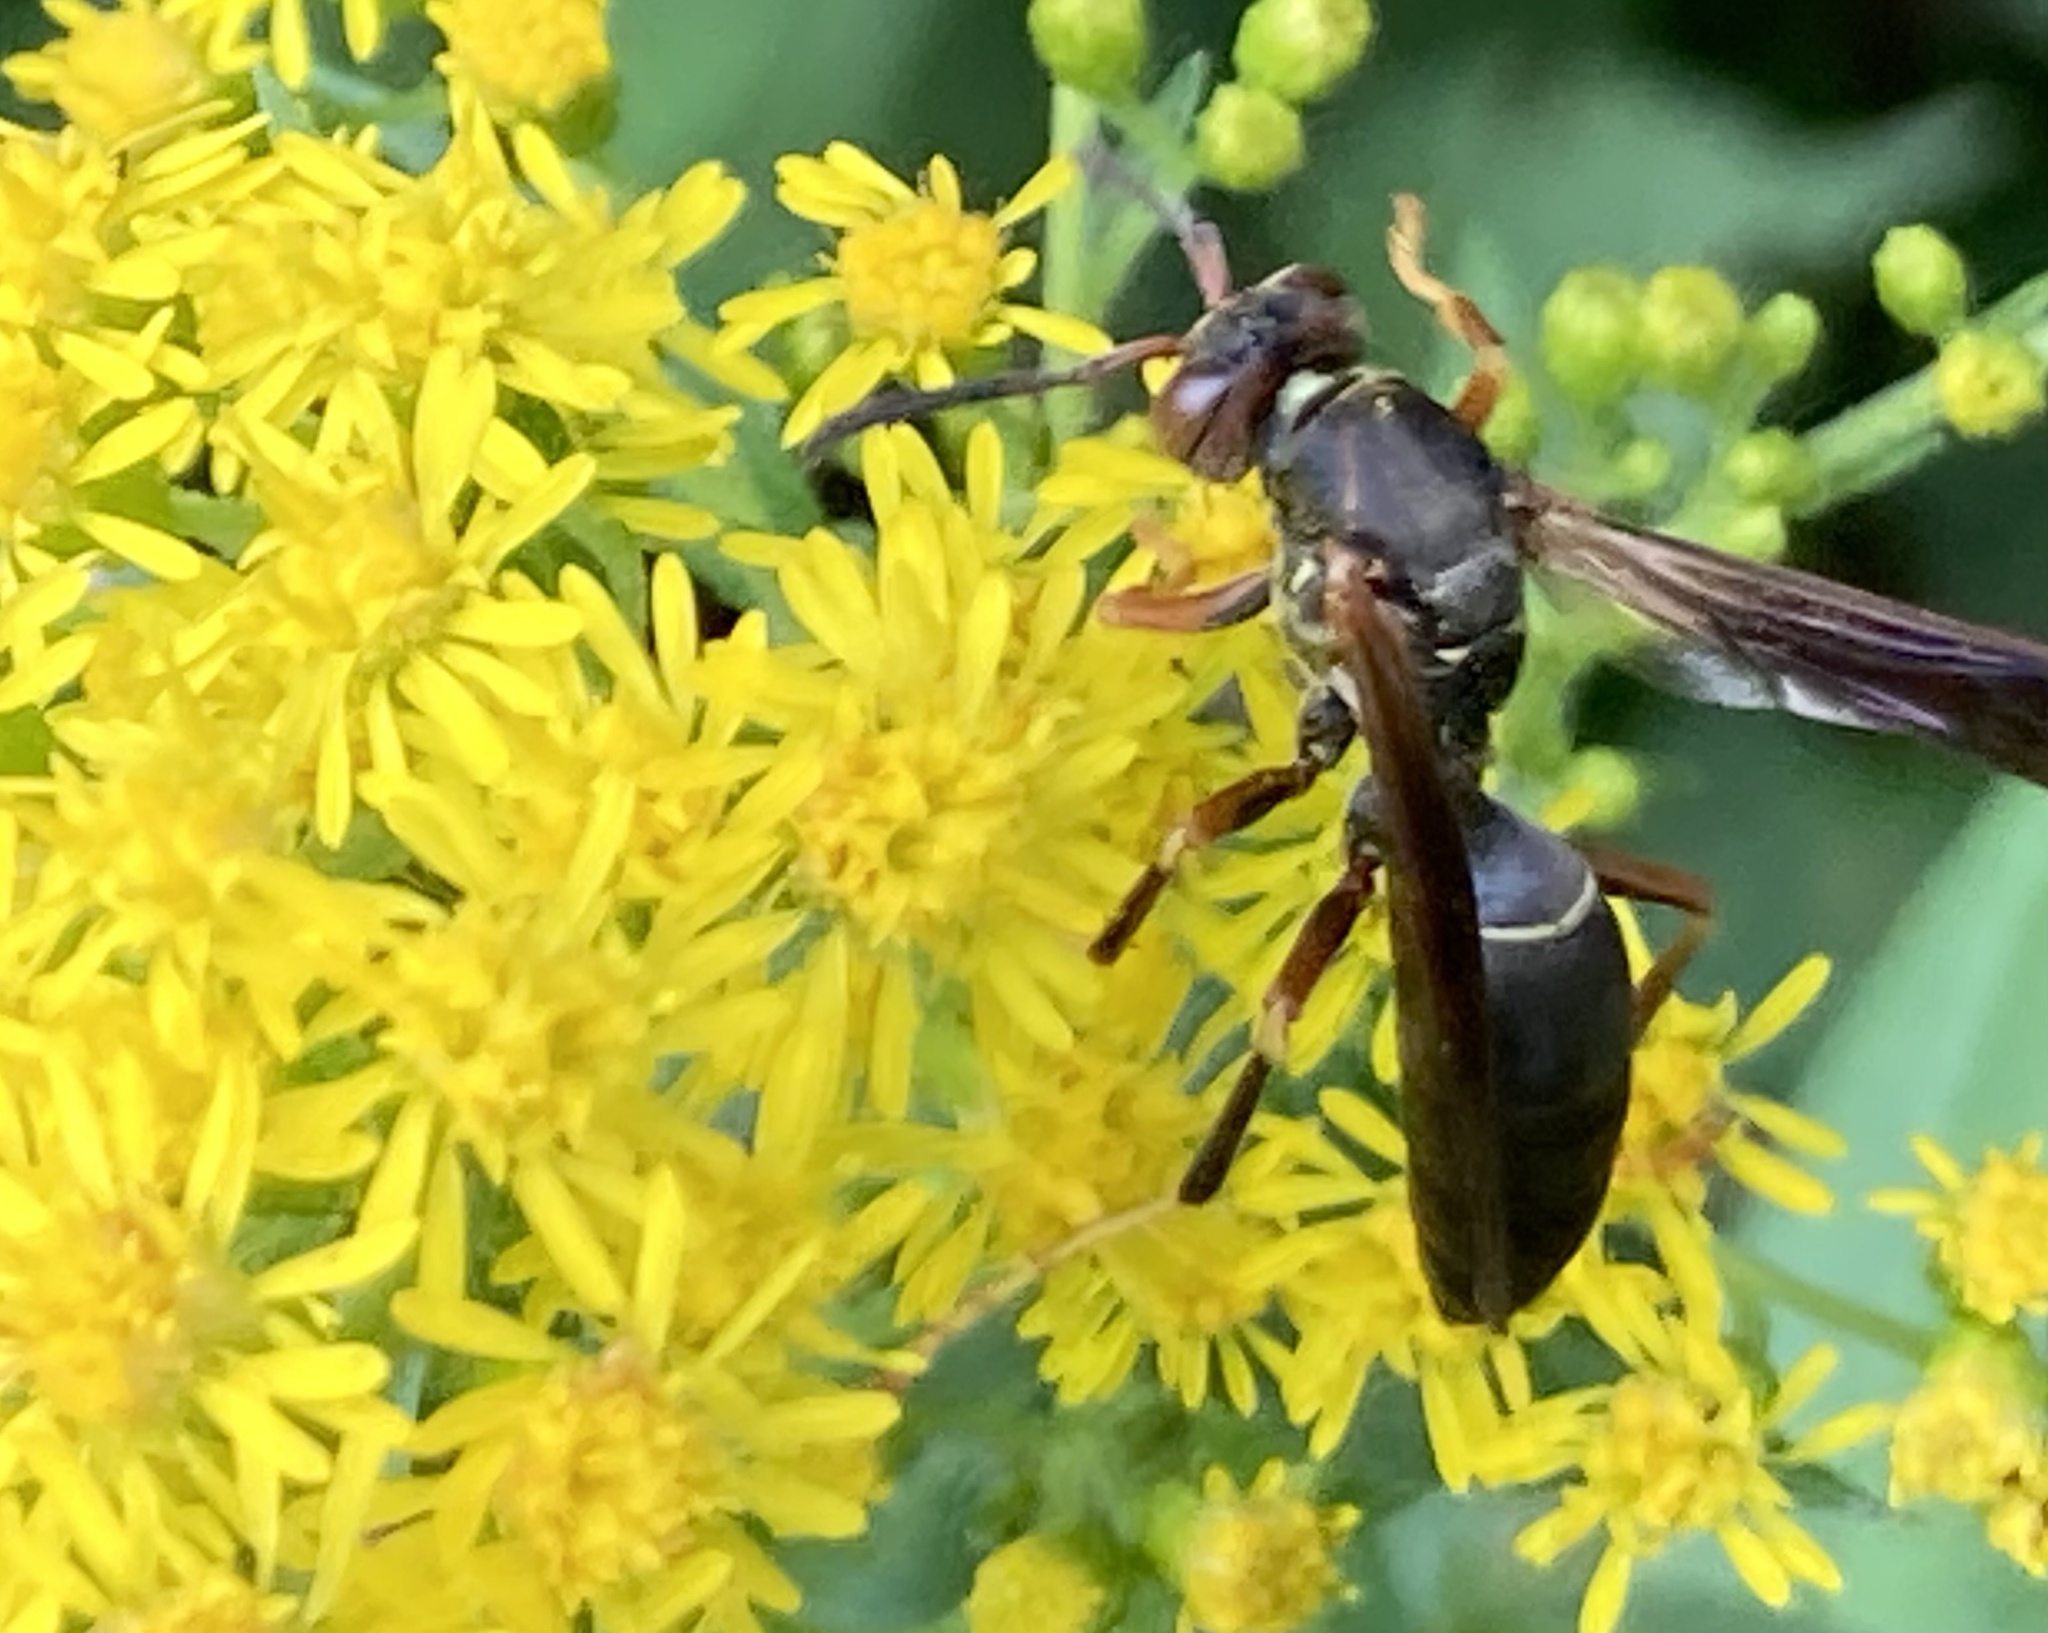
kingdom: Animalia
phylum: Arthropoda
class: Insecta
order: Hymenoptera
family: Eumenidae
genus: Polistes
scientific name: Polistes fuscatus
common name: Dark paper wasp
